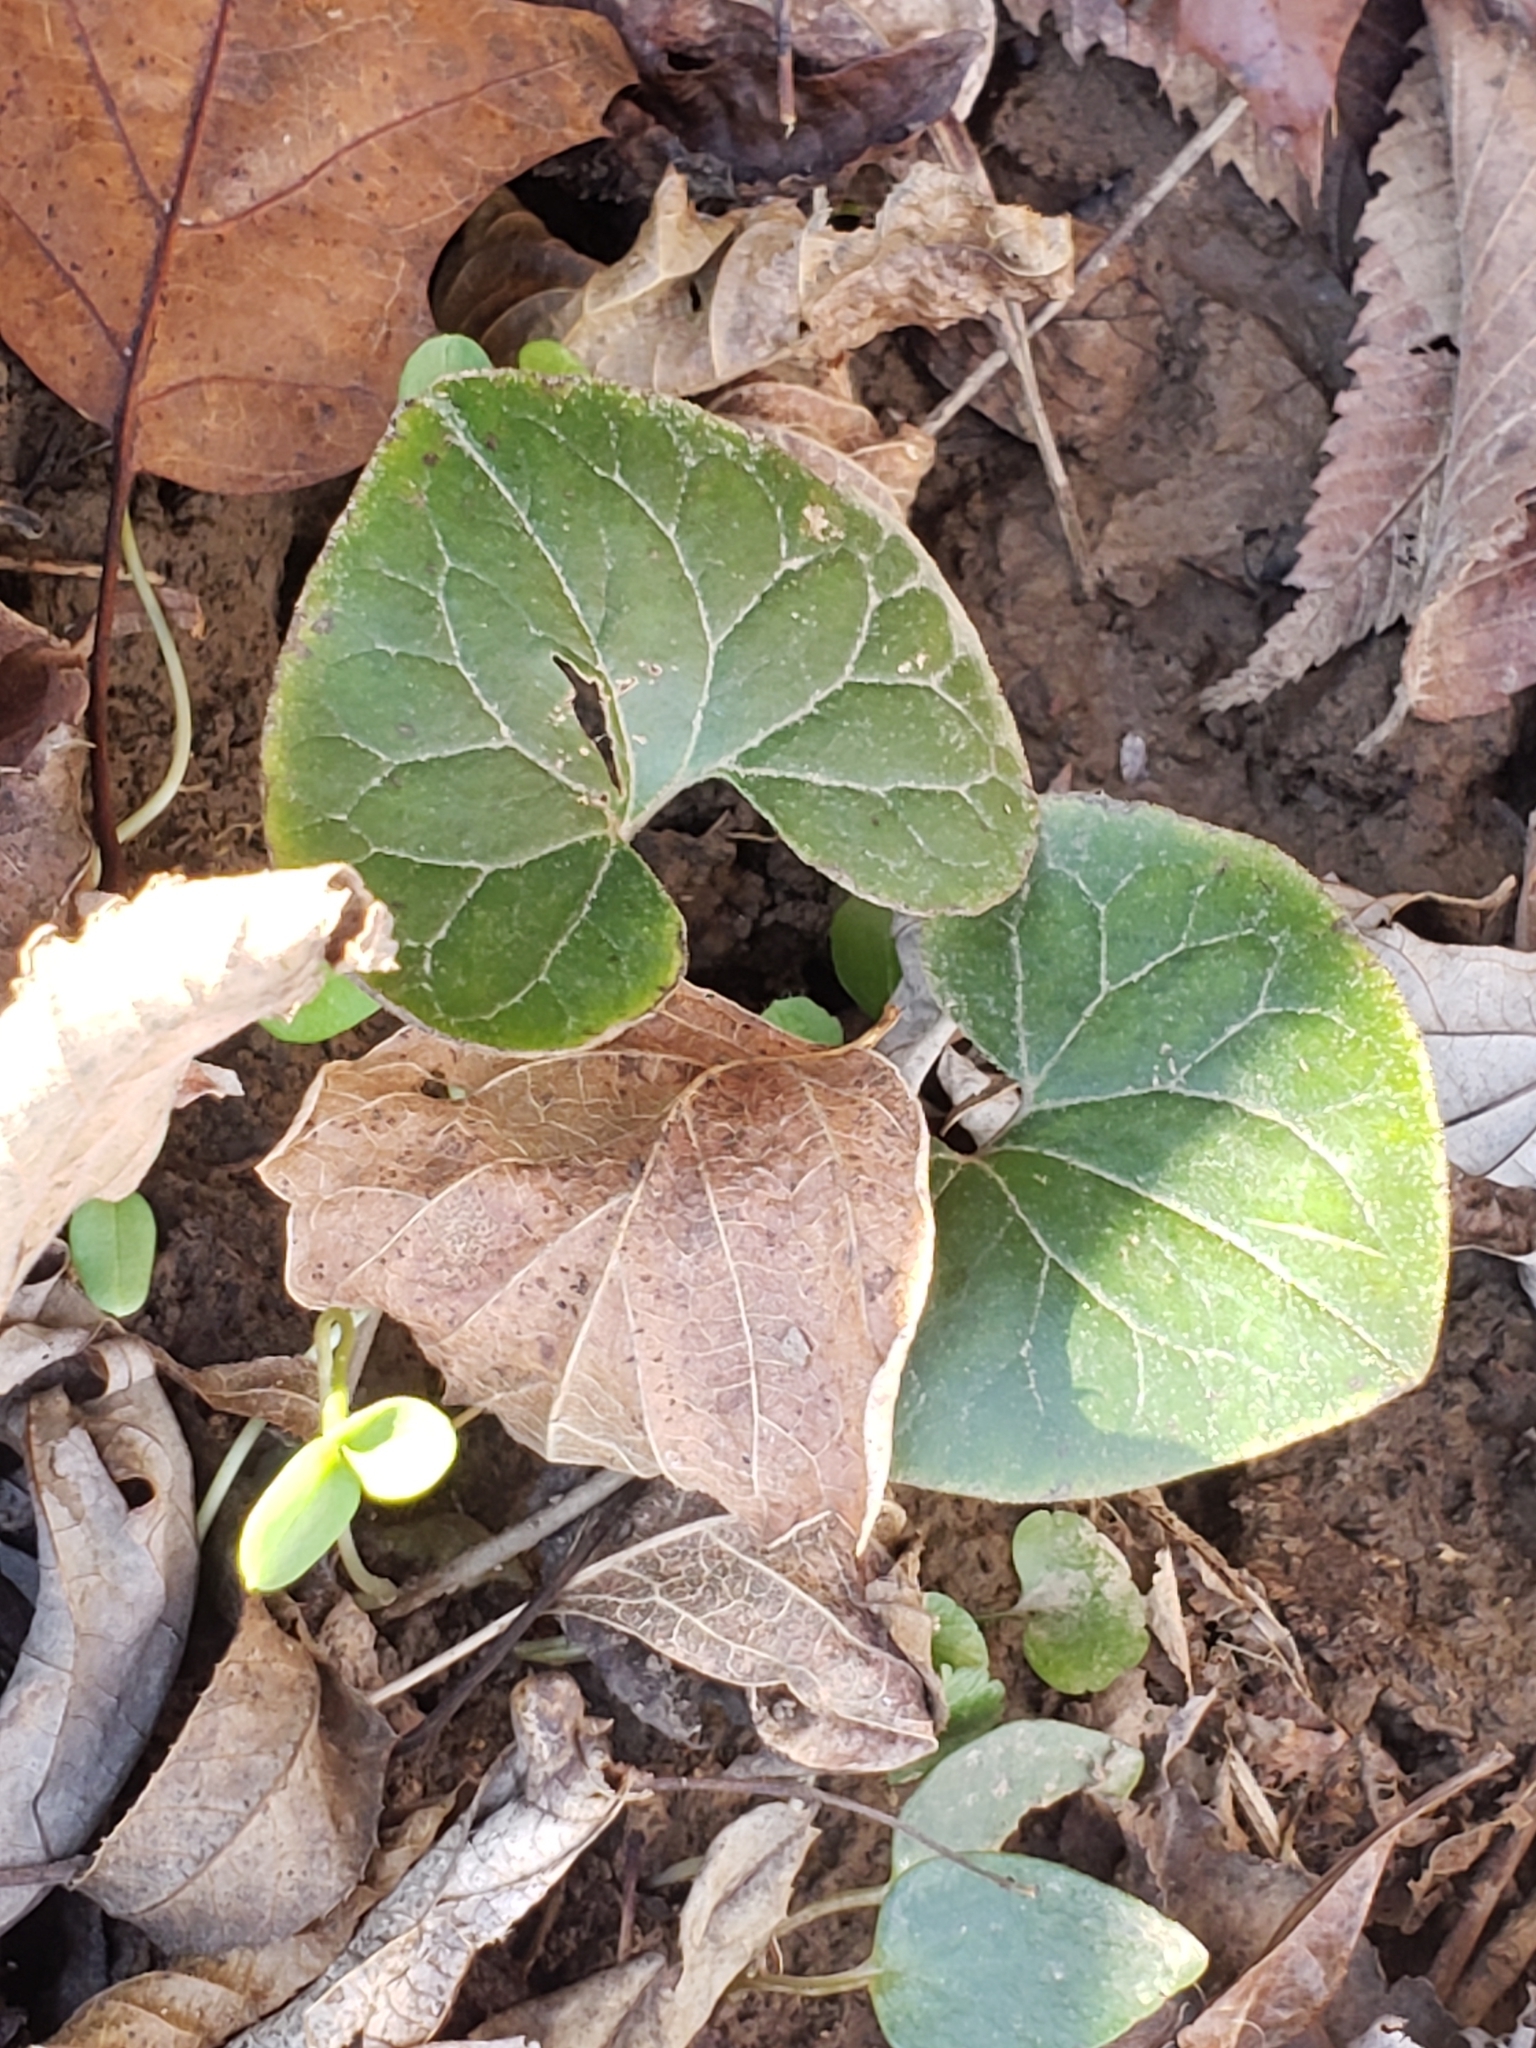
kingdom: Plantae
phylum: Tracheophyta
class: Magnoliopsida
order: Piperales
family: Aristolochiaceae
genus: Asarum
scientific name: Asarum canadense
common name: Wild ginger
